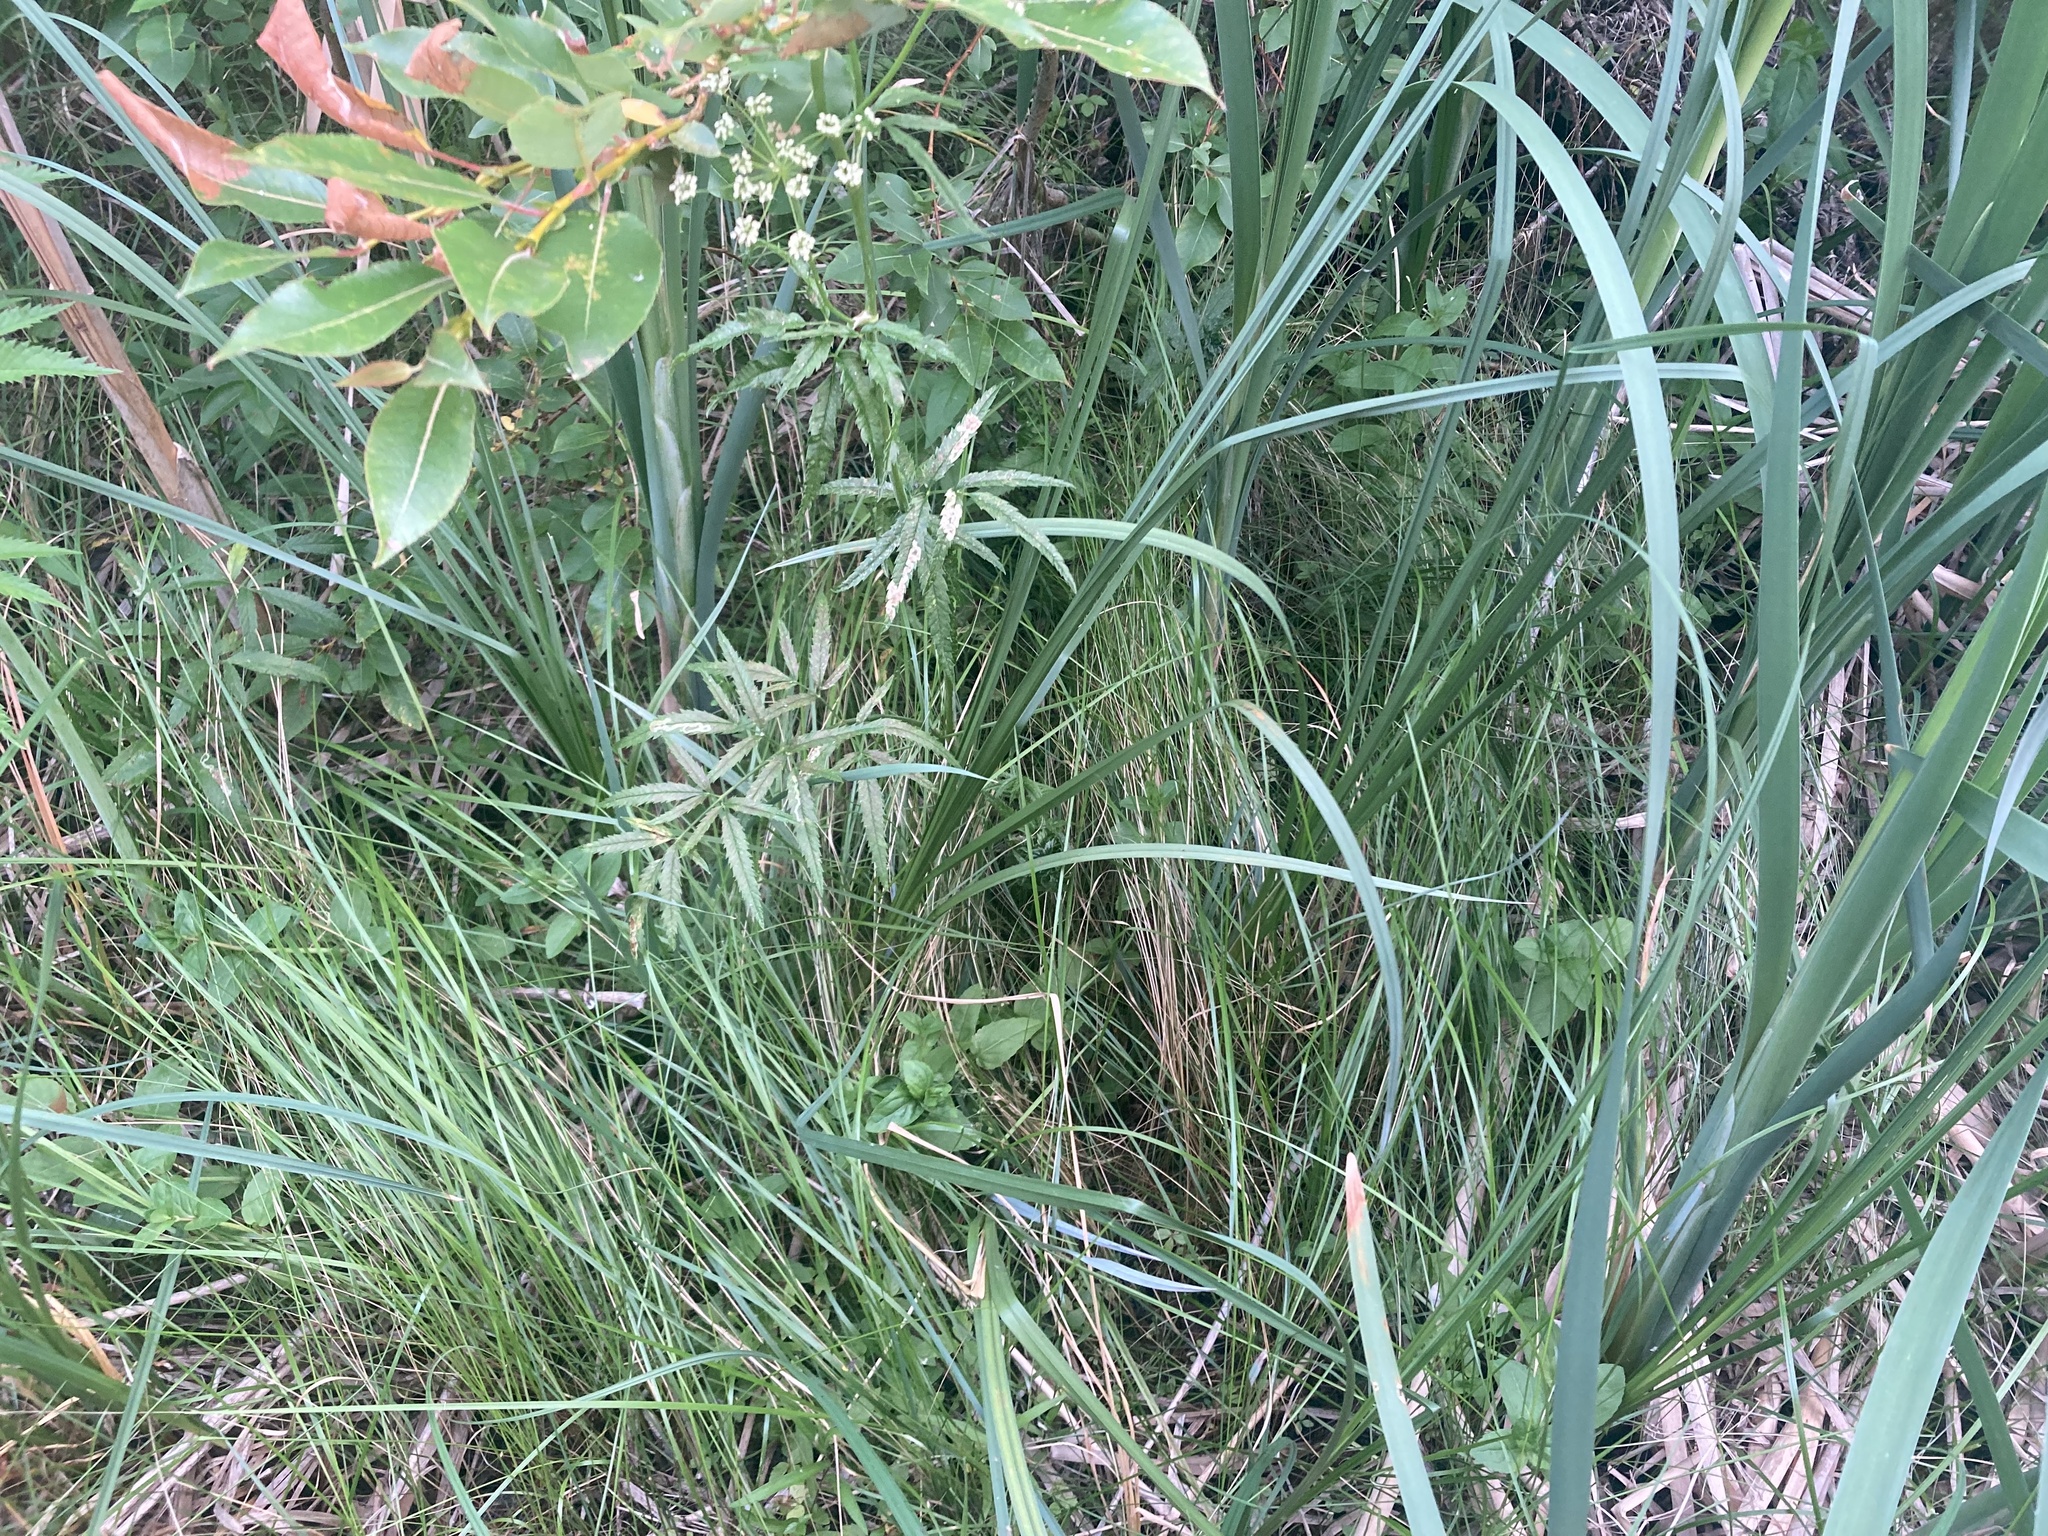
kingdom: Plantae
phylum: Tracheophyta
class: Magnoliopsida
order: Apiales
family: Apiaceae
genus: Cicuta
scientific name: Cicuta maculata
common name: Spotted cowbane
